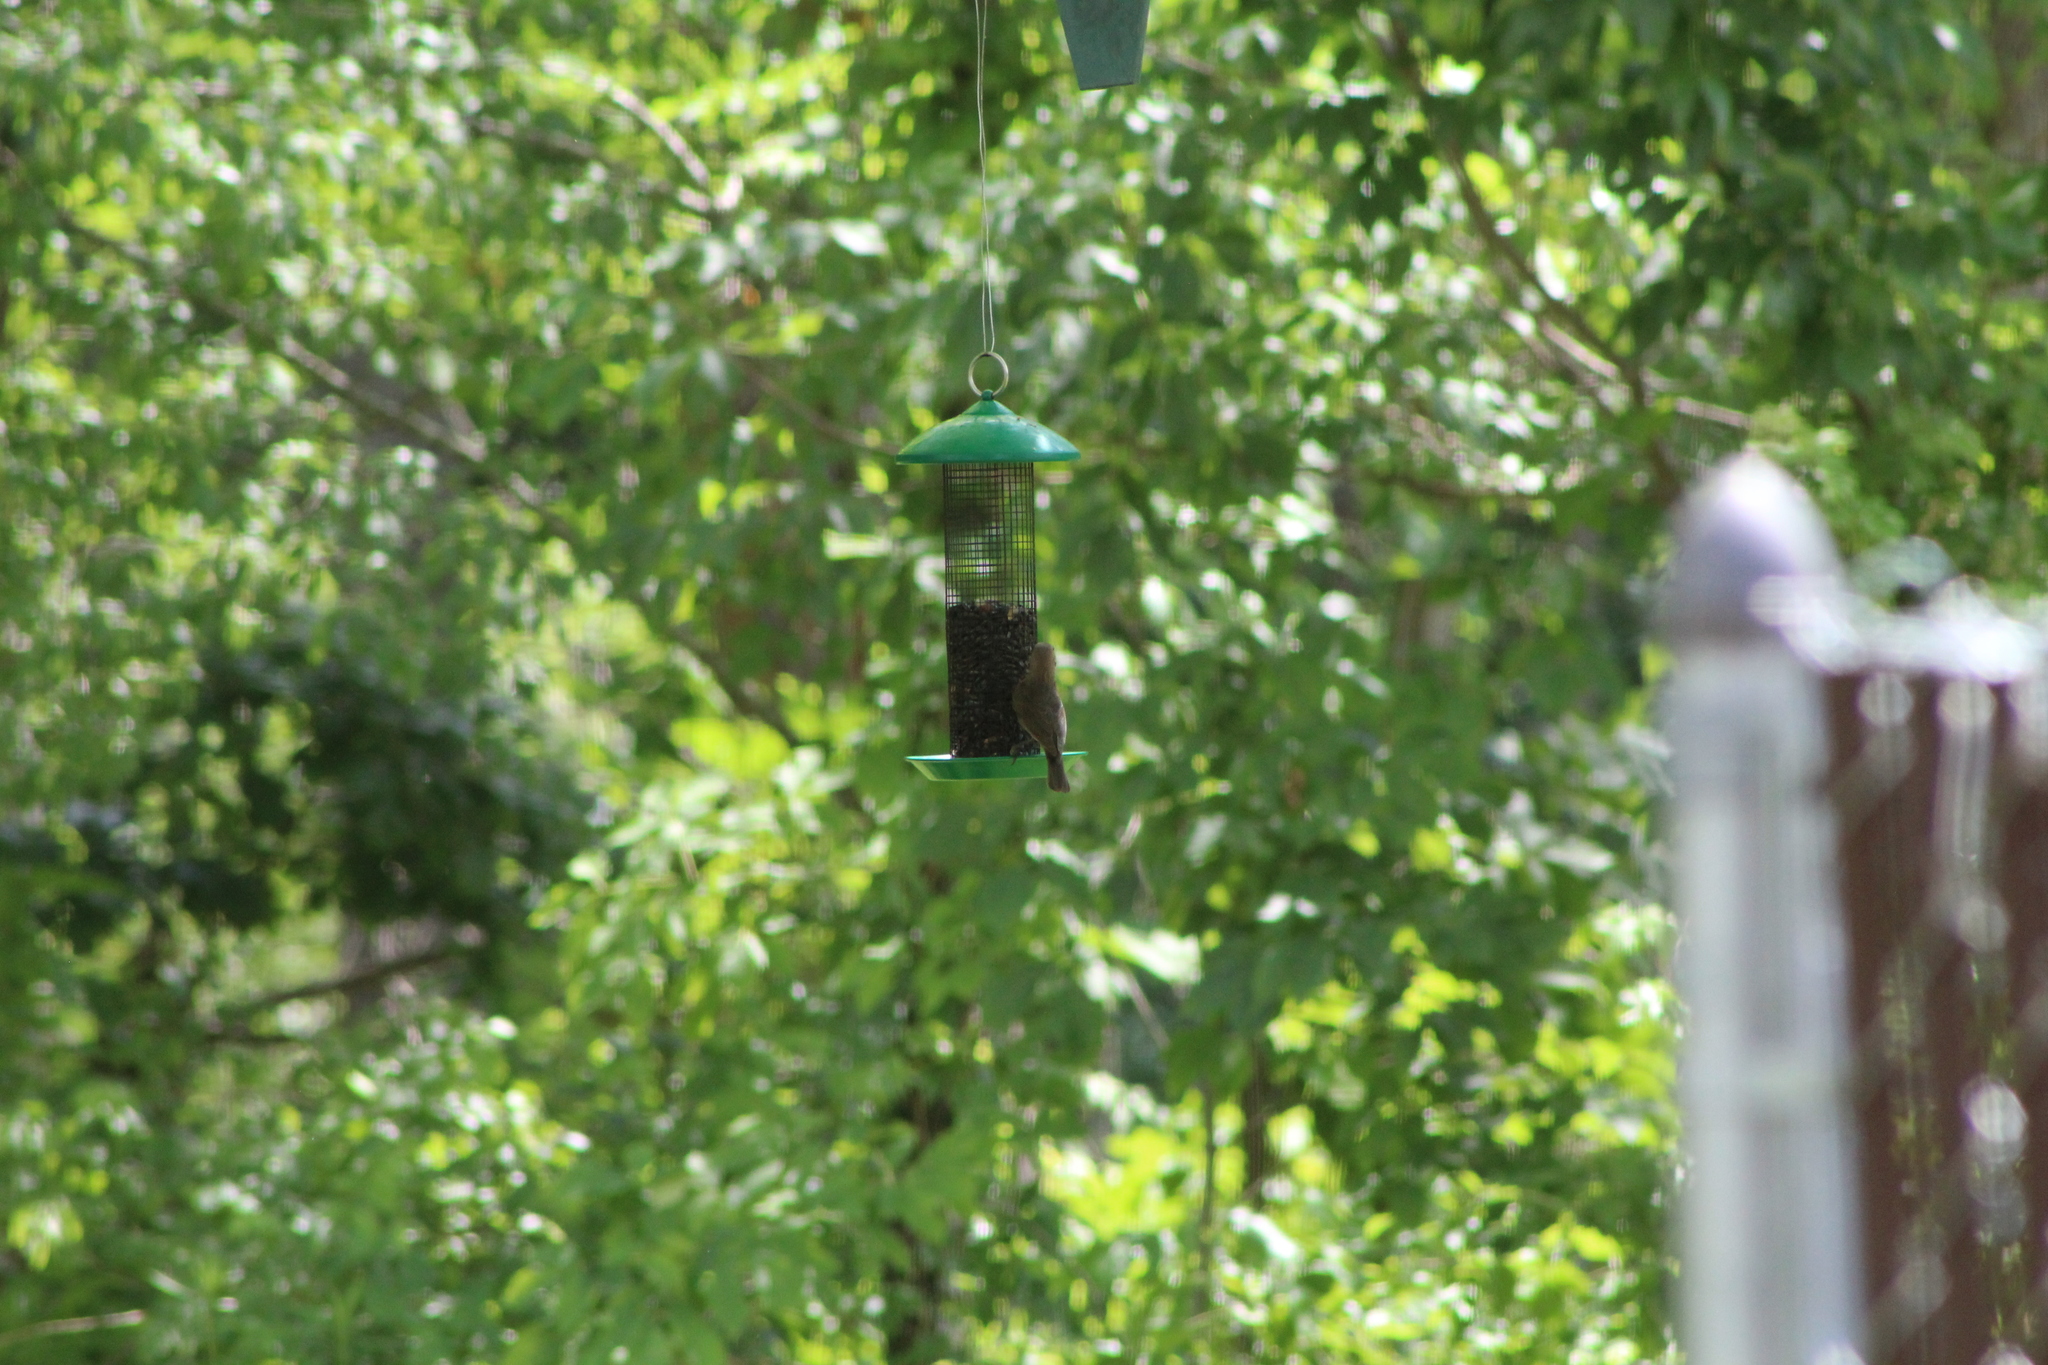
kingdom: Animalia
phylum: Chordata
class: Aves
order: Passeriformes
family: Icteridae
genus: Molothrus
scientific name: Molothrus ater
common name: Brown-headed cowbird
